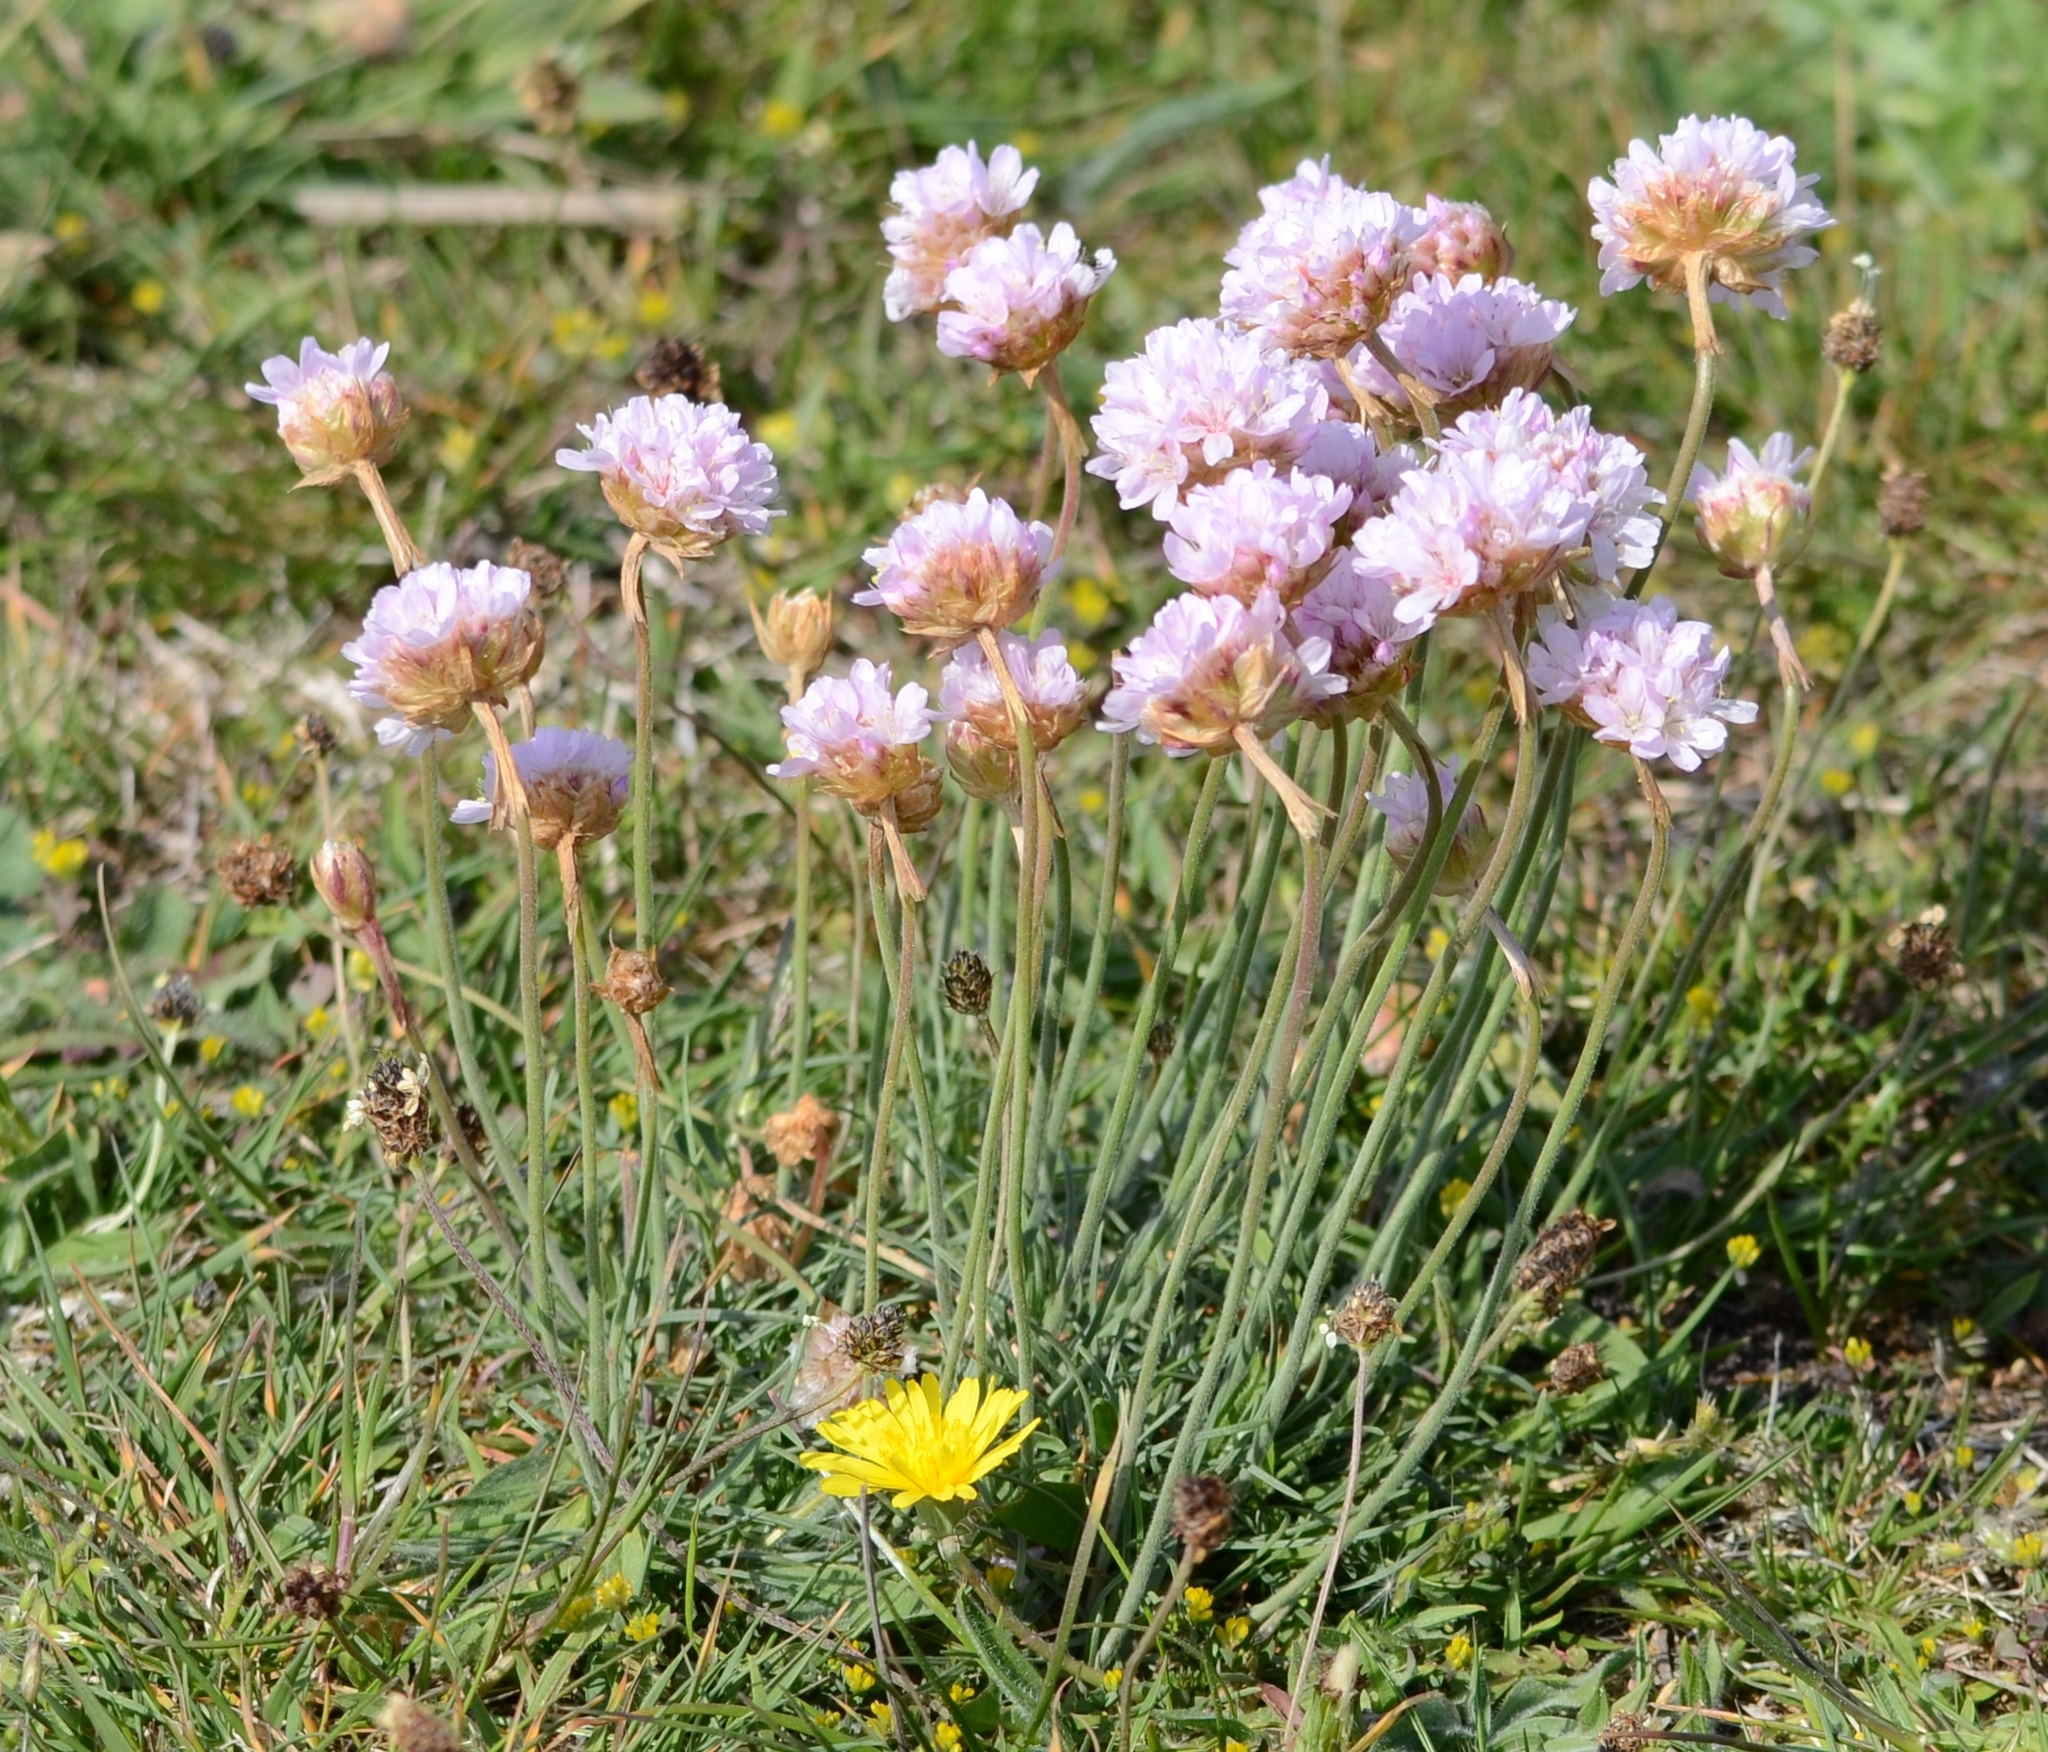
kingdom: Plantae
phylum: Tracheophyta
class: Magnoliopsida
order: Caryophyllales
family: Plumbaginaceae
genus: Armeria
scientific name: Armeria maritima
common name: Thrift
